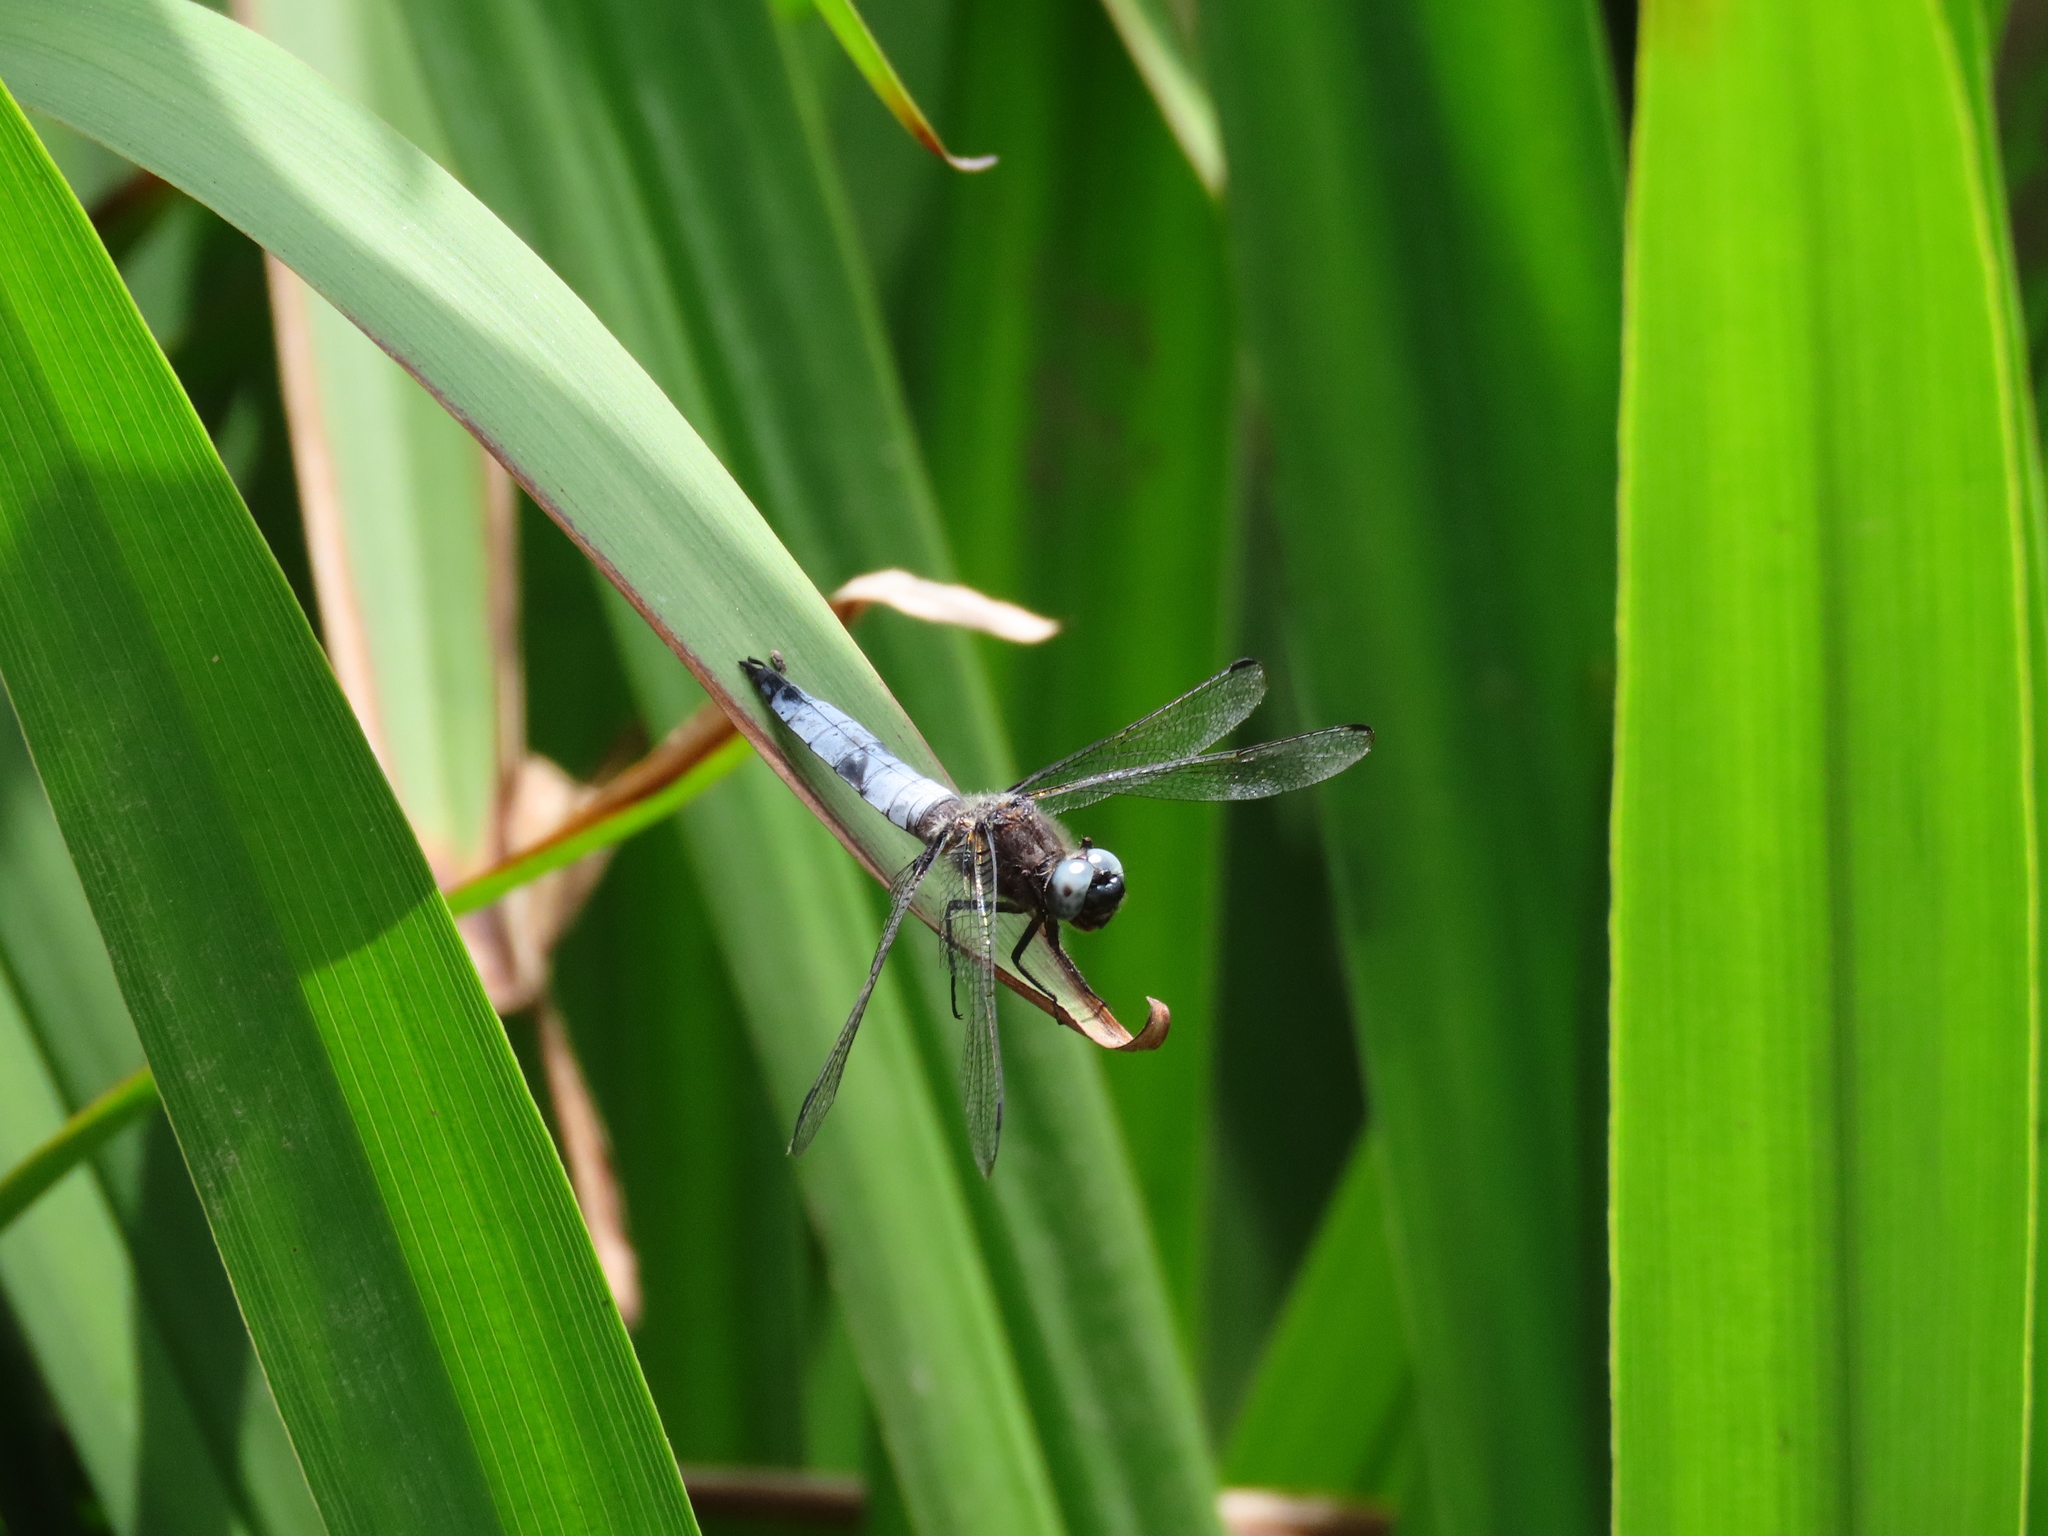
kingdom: Animalia
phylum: Arthropoda
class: Insecta
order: Odonata
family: Libellulidae
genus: Libellula
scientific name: Libellula fulva
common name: Blue chaser
